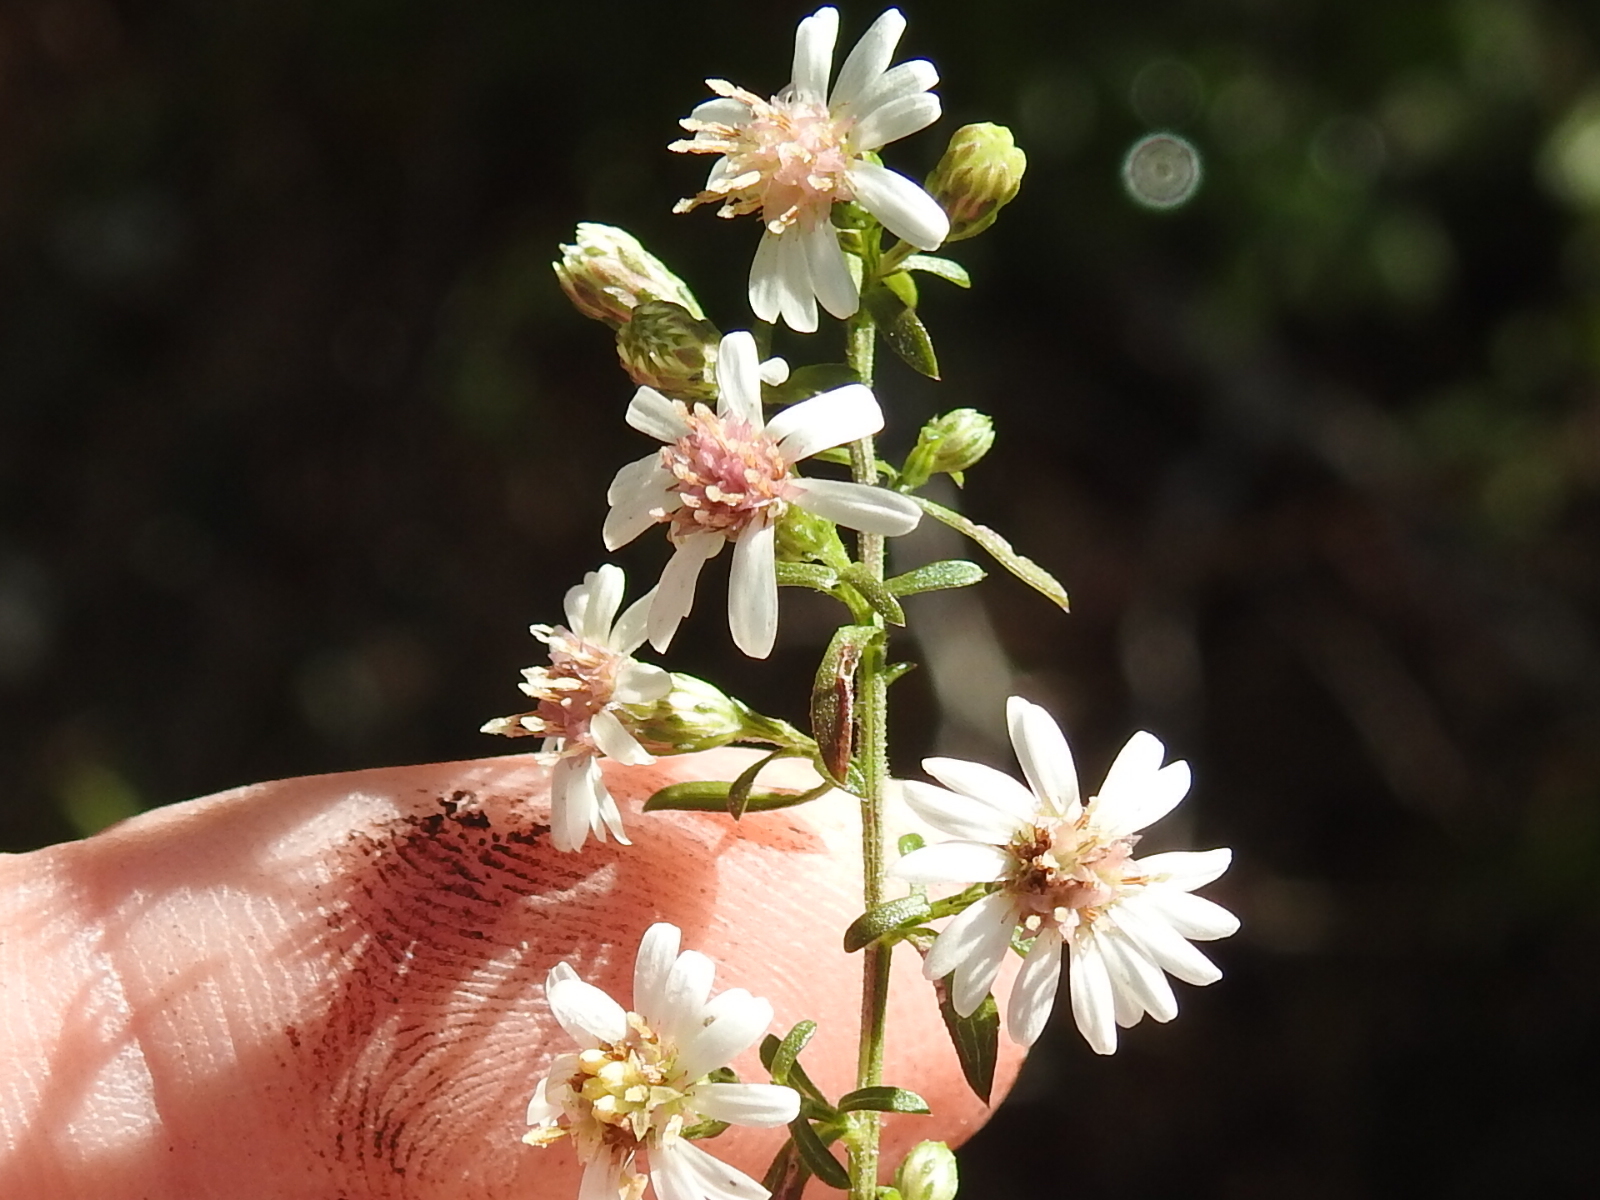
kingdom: Plantae
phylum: Tracheophyta
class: Magnoliopsida
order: Asterales
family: Asteraceae
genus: Symphyotrichum
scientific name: Symphyotrichum lateriflorum
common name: Calico aster
